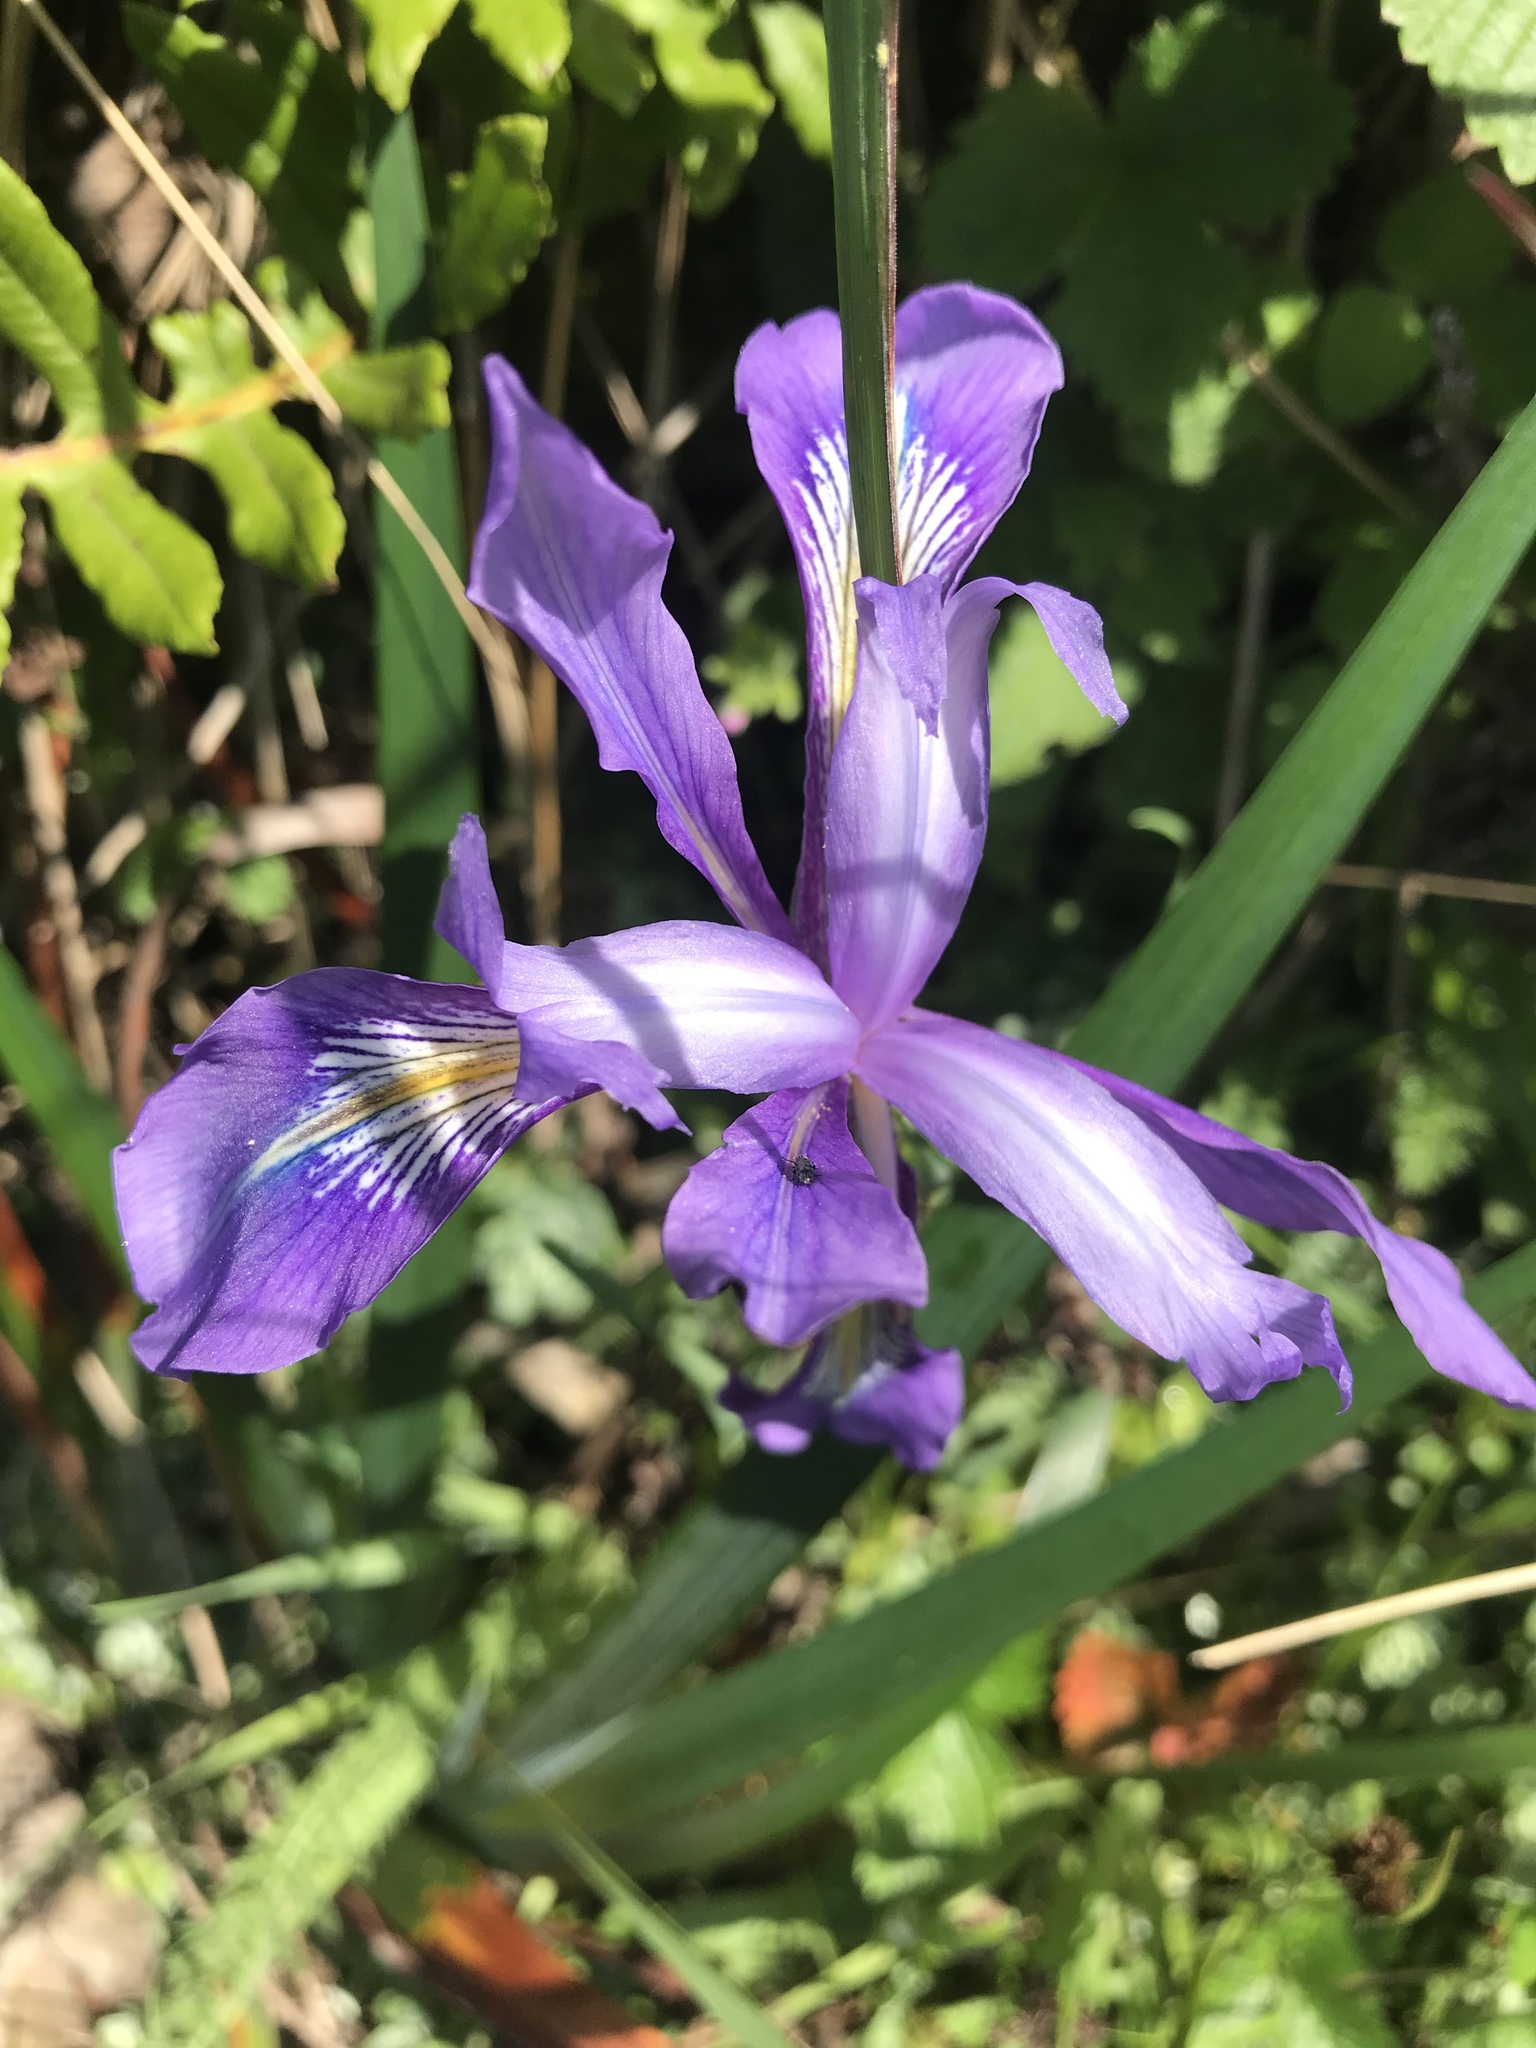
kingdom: Plantae
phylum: Tracheophyta
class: Liliopsida
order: Asparagales
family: Iridaceae
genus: Iris
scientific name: Iris douglasiana
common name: Marin iris
